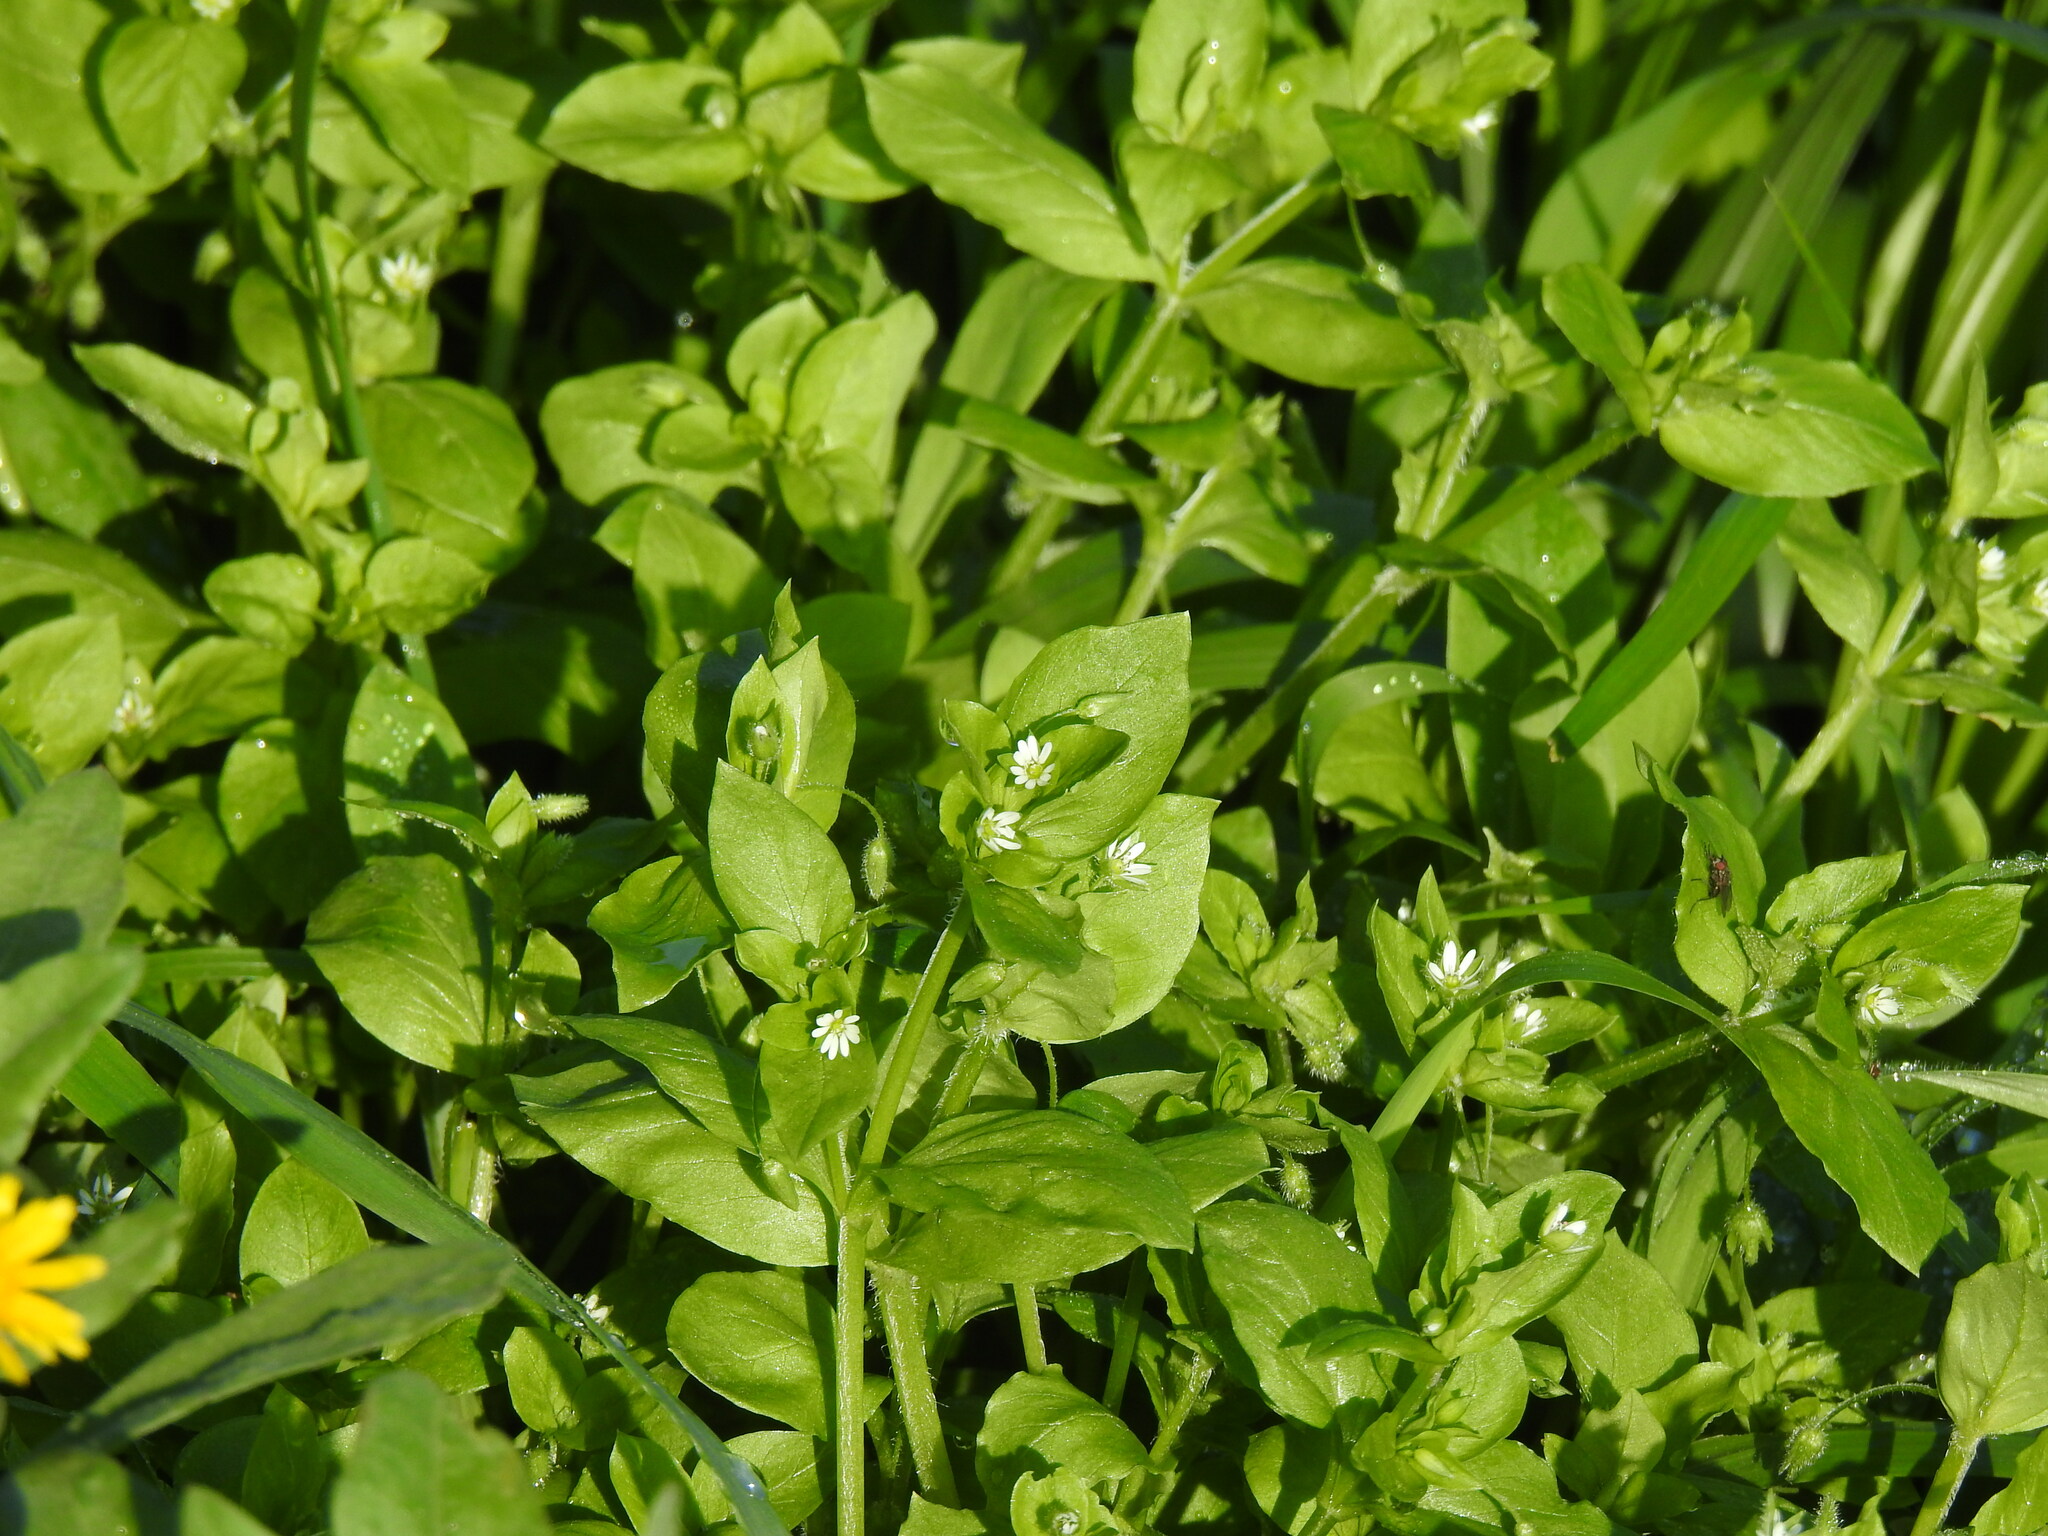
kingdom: Plantae
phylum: Tracheophyta
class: Magnoliopsida
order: Caryophyllales
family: Caryophyllaceae
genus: Stellaria
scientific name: Stellaria media
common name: Common chickweed
